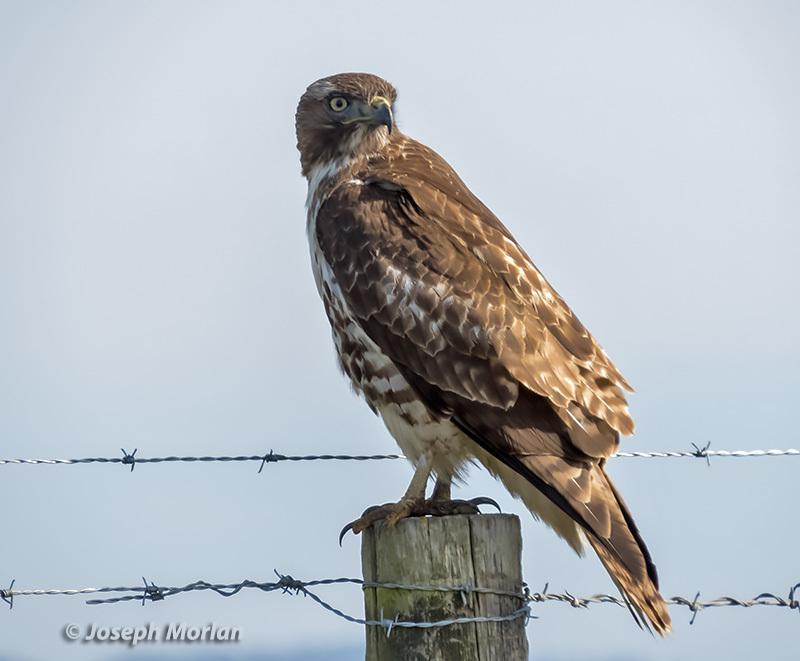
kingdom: Animalia
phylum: Chordata
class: Aves
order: Accipitriformes
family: Accipitridae
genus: Buteo
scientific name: Buteo jamaicensis
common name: Red-tailed hawk
